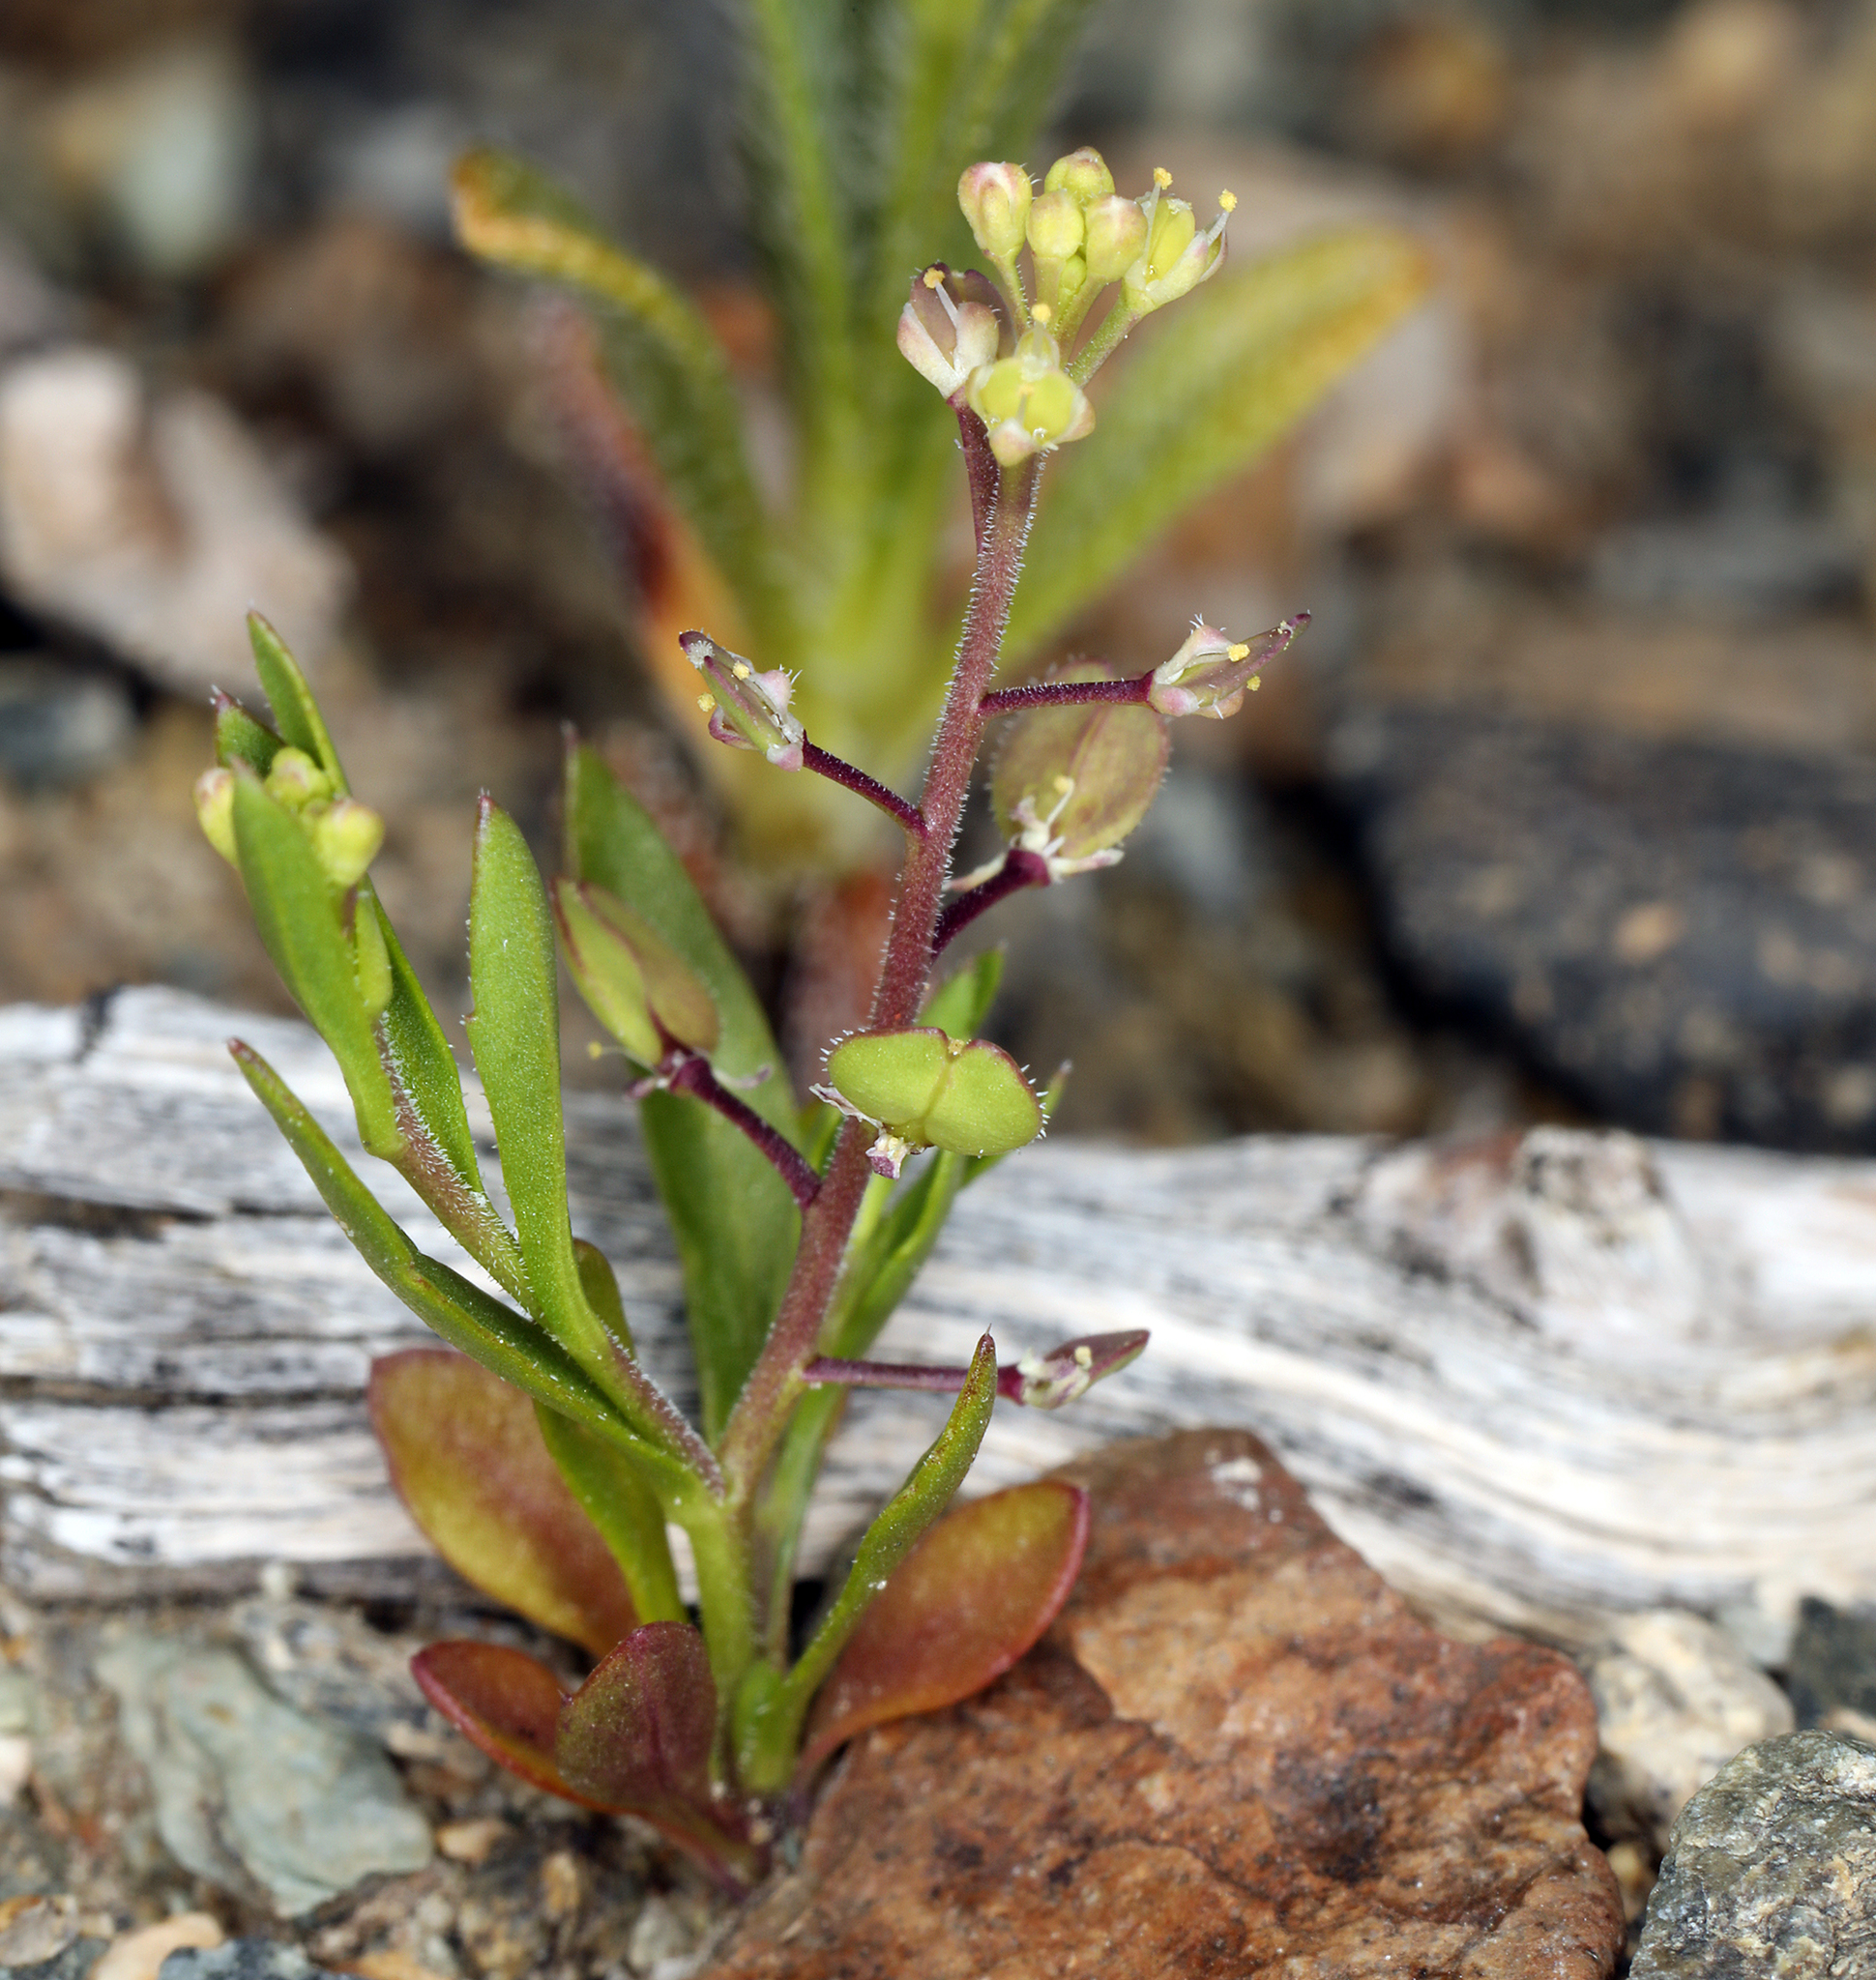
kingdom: Plantae
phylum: Tracheophyta
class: Magnoliopsida
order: Brassicales
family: Brassicaceae
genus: Lepidium
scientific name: Lepidium lasiocarpum
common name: Hairy-pod pepperwort
